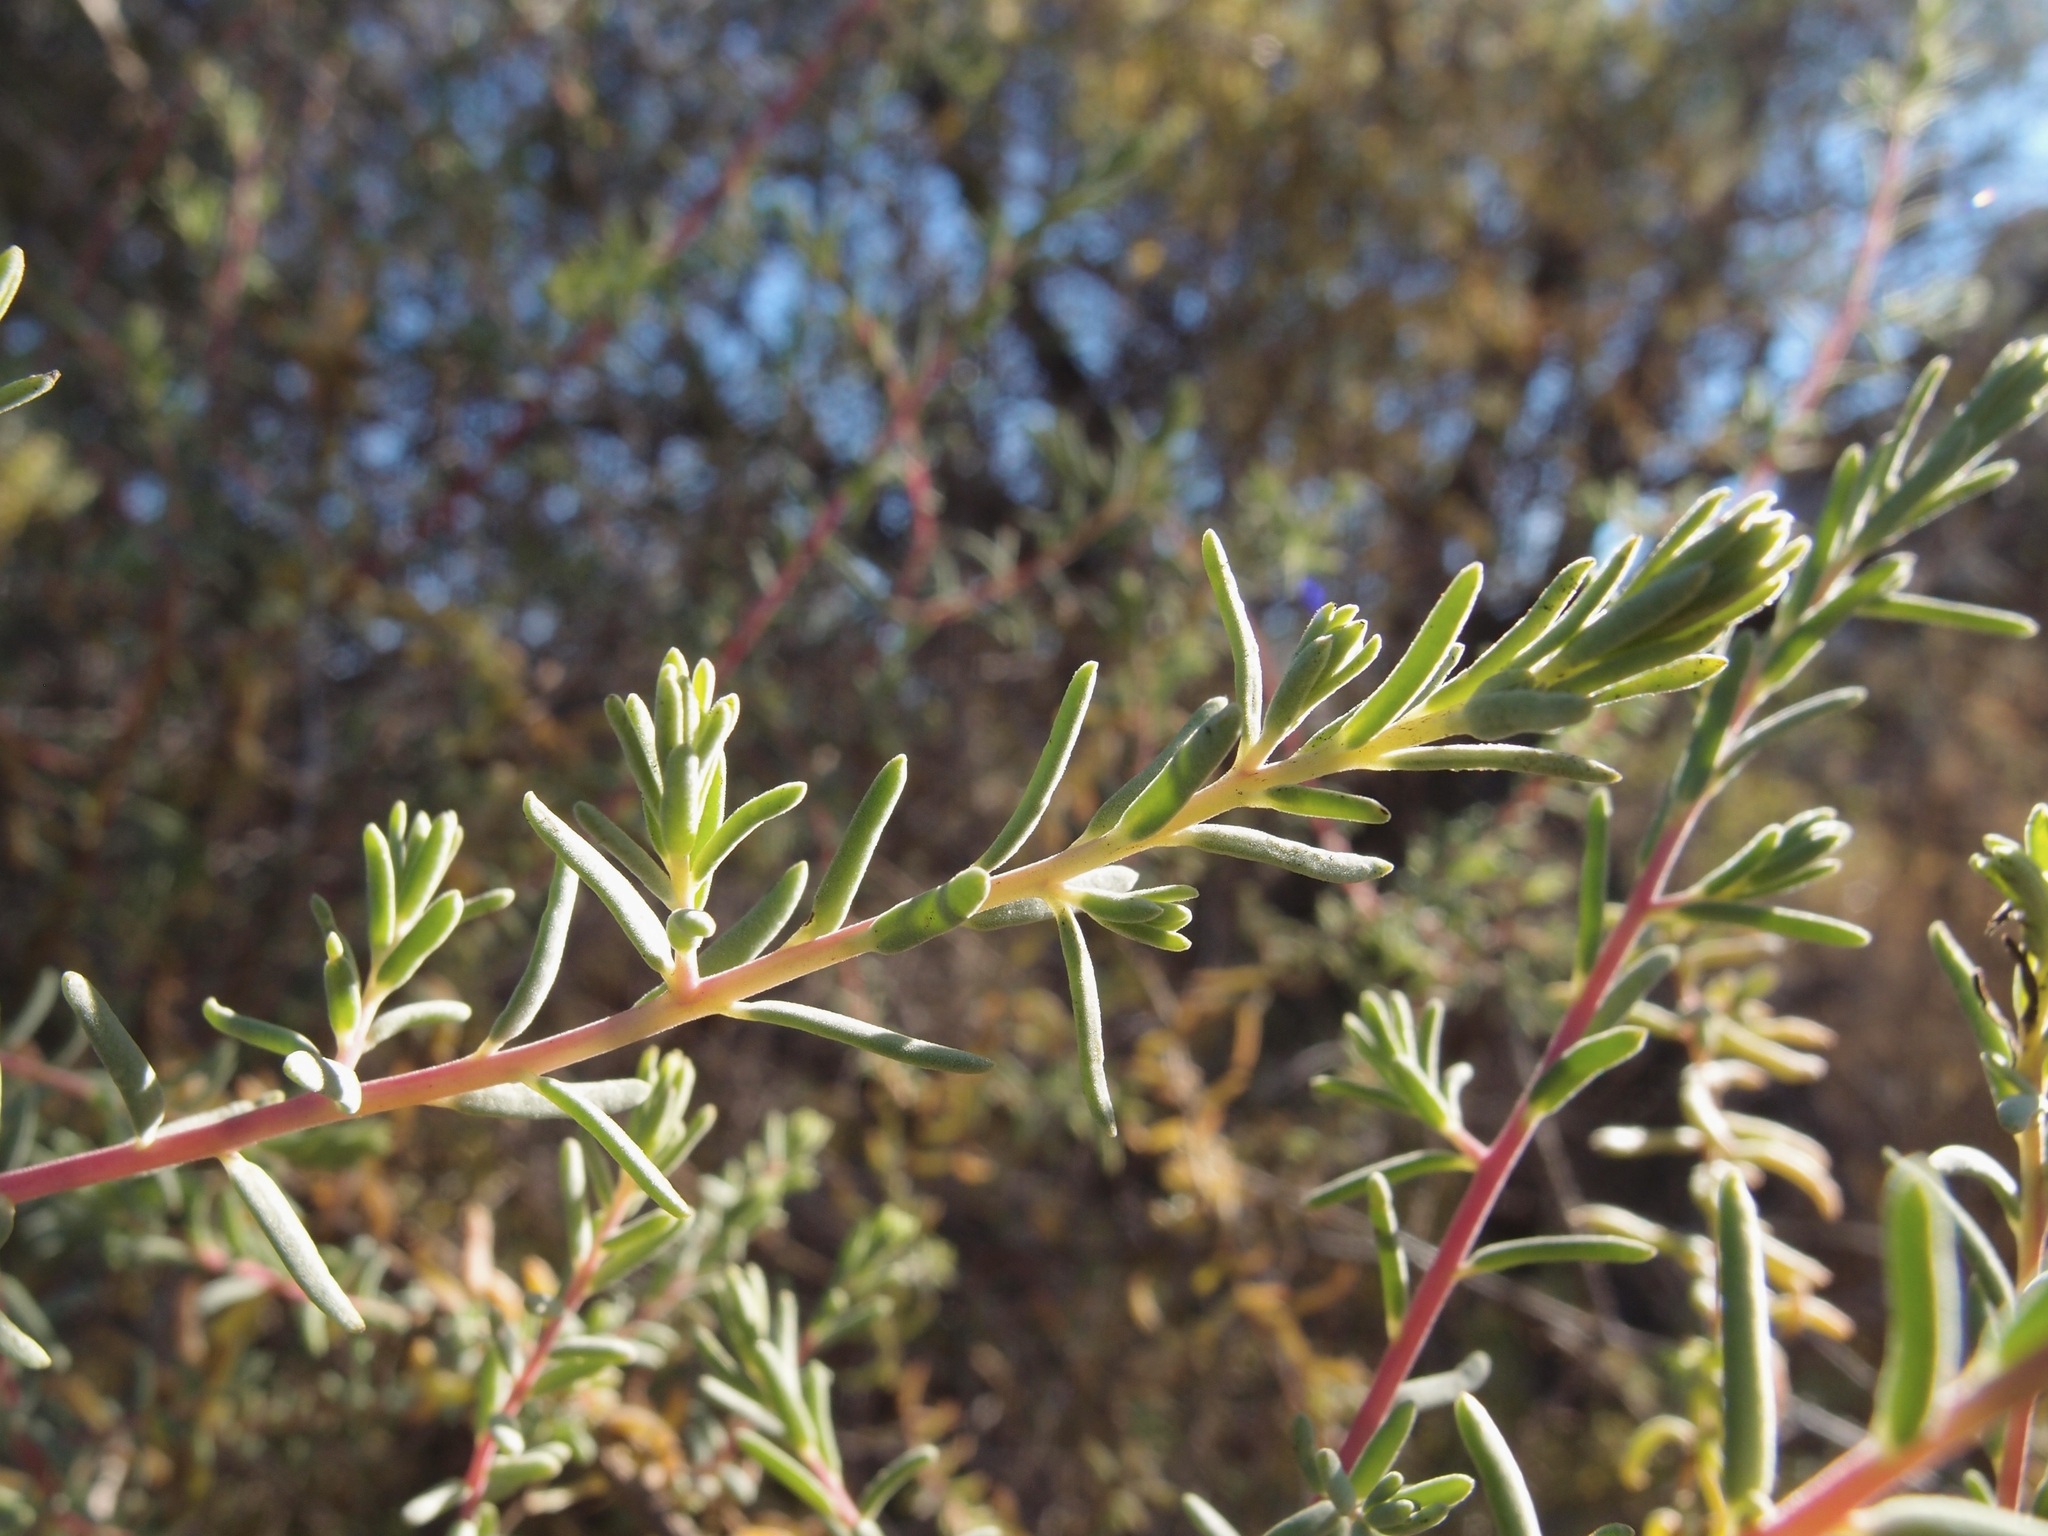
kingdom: Plantae
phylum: Tracheophyta
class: Magnoliopsida
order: Caryophyllales
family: Amaranthaceae
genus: Suaeda
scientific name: Suaeda nigra
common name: Bush seepweed
